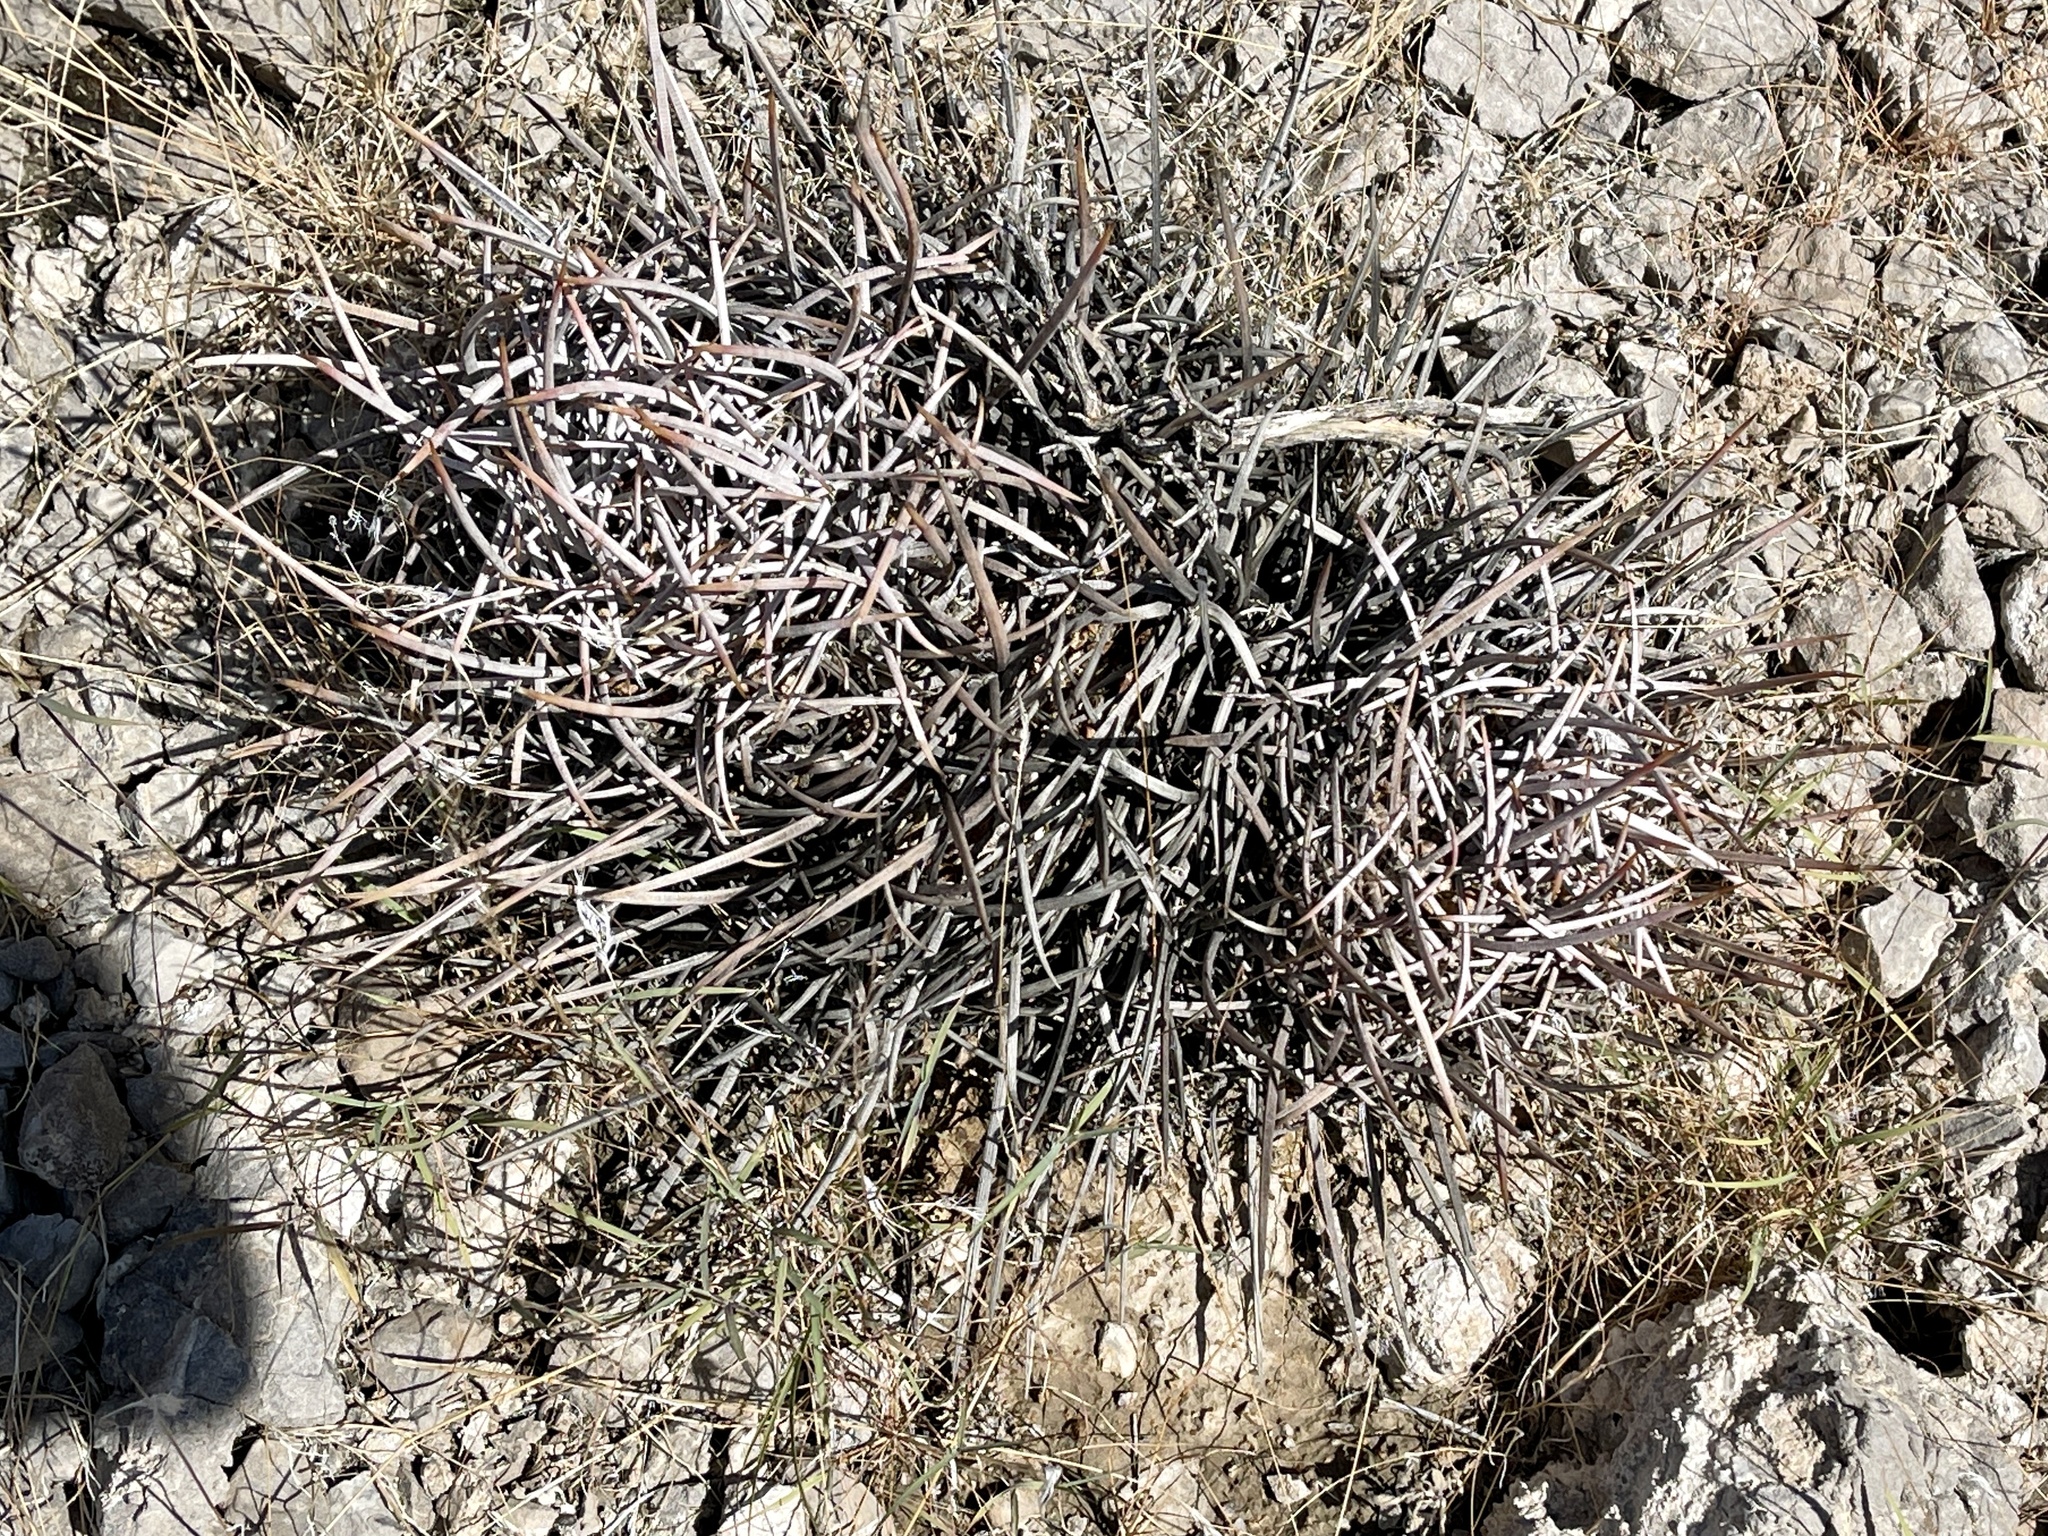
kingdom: Plantae
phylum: Tracheophyta
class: Magnoliopsida
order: Caryophyllales
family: Cactaceae
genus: Echinocactus
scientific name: Echinocactus polycephalus
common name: Cottontop cactus
